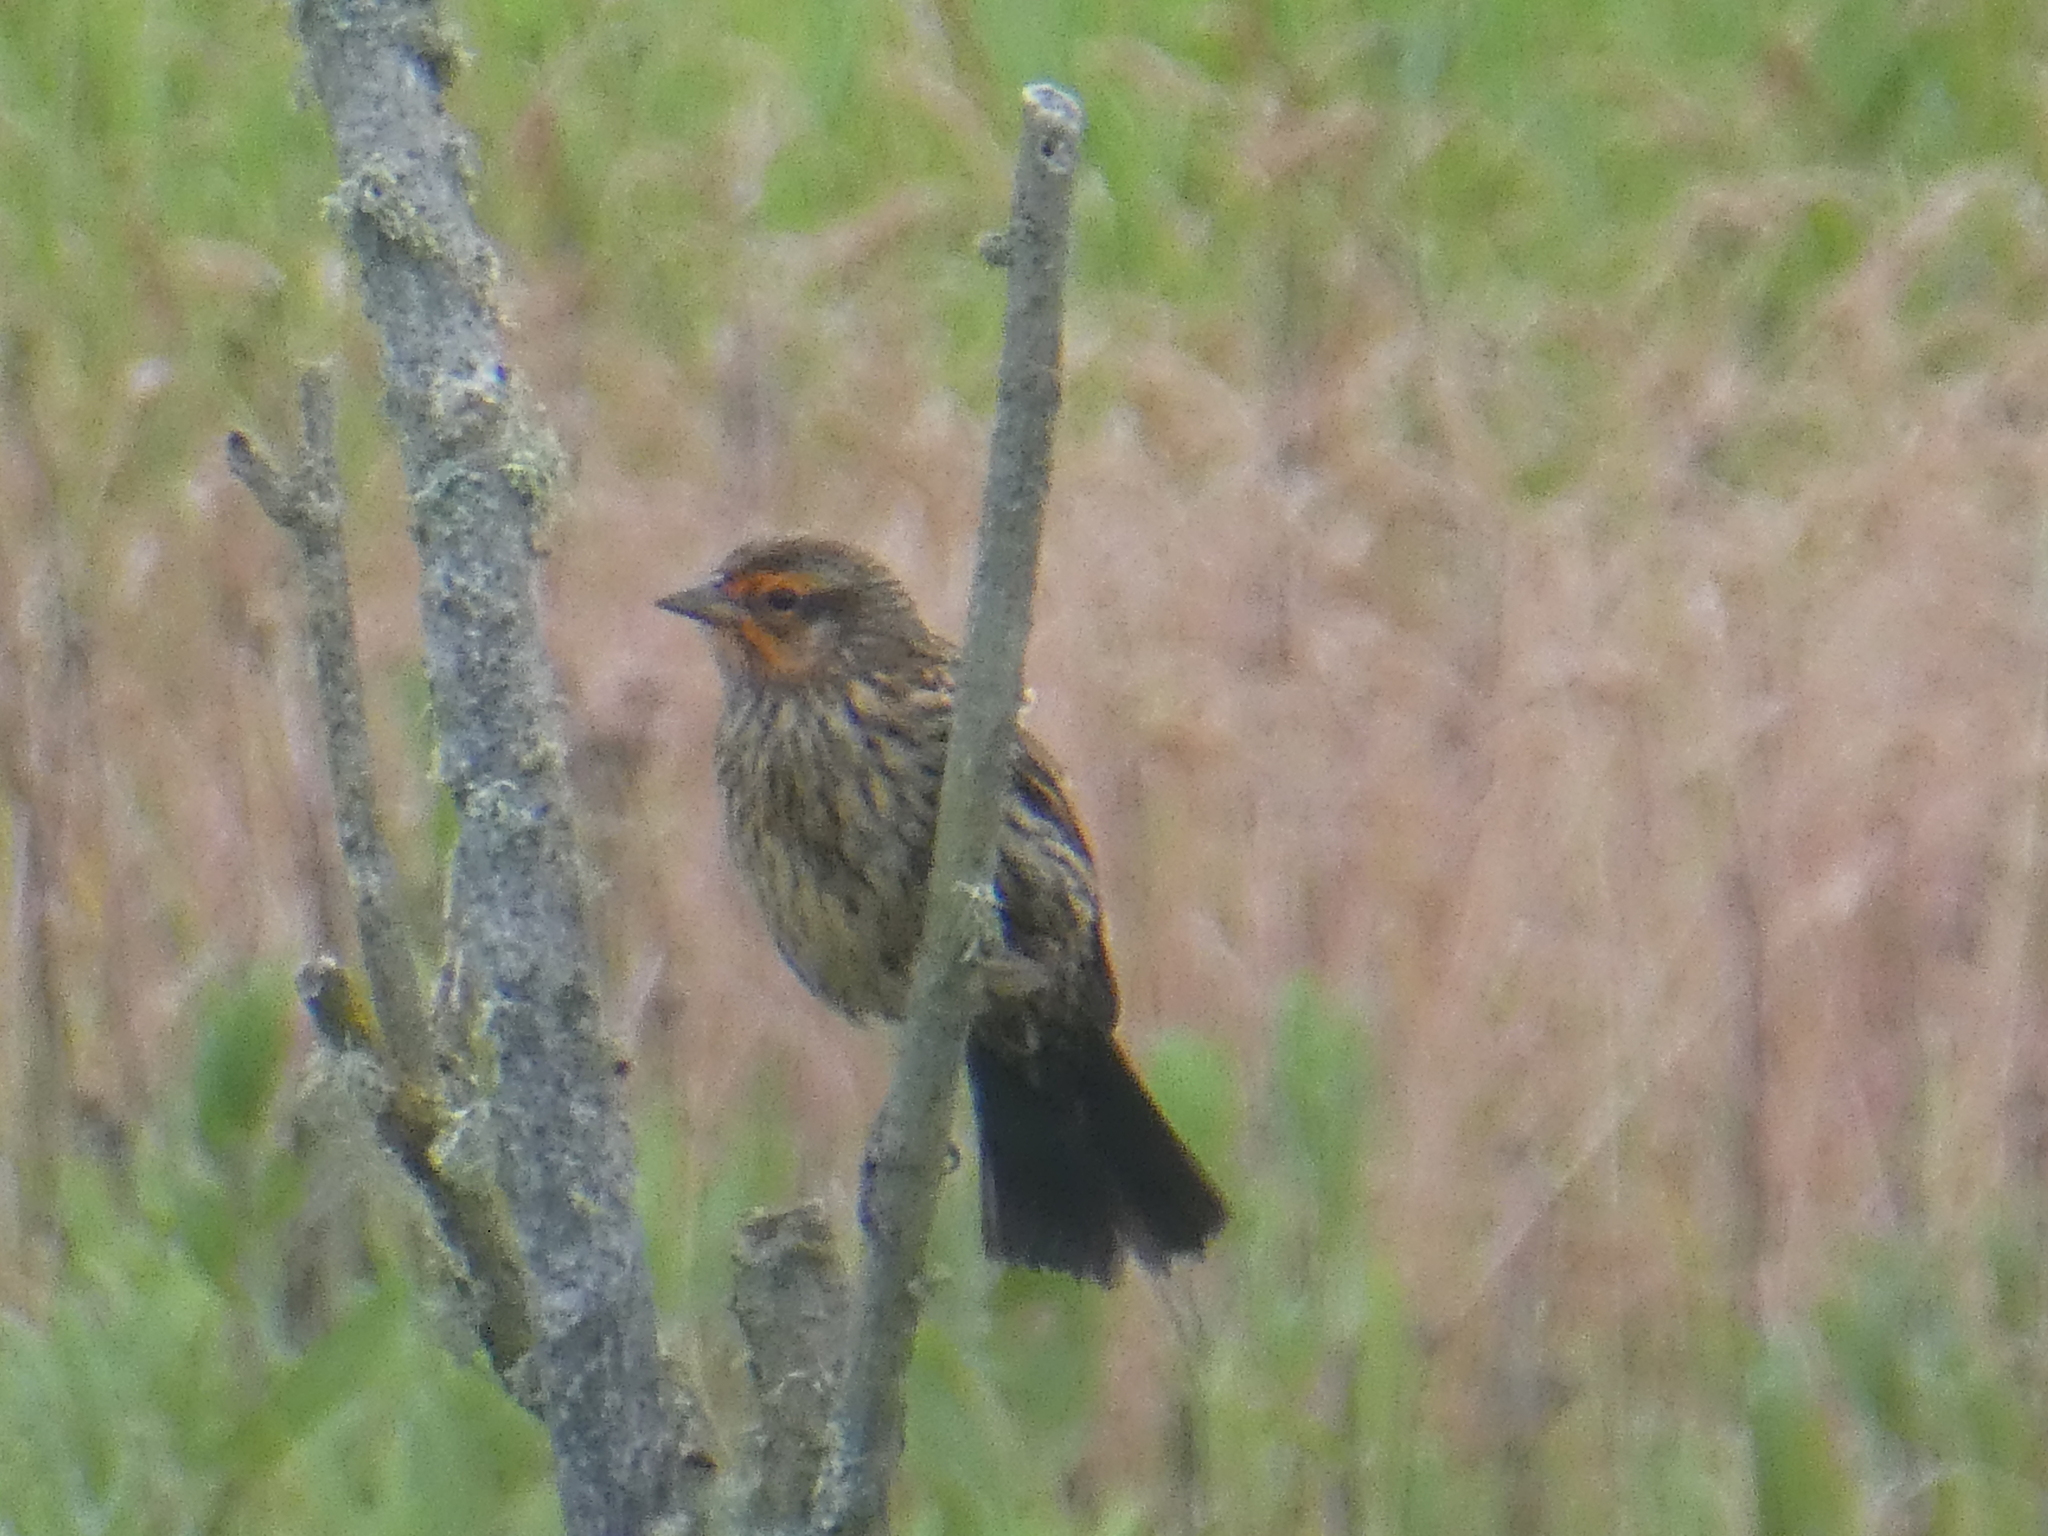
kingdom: Animalia
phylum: Chordata
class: Aves
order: Passeriformes
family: Icteridae
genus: Agelaius
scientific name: Agelaius phoeniceus
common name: Red-winged blackbird
